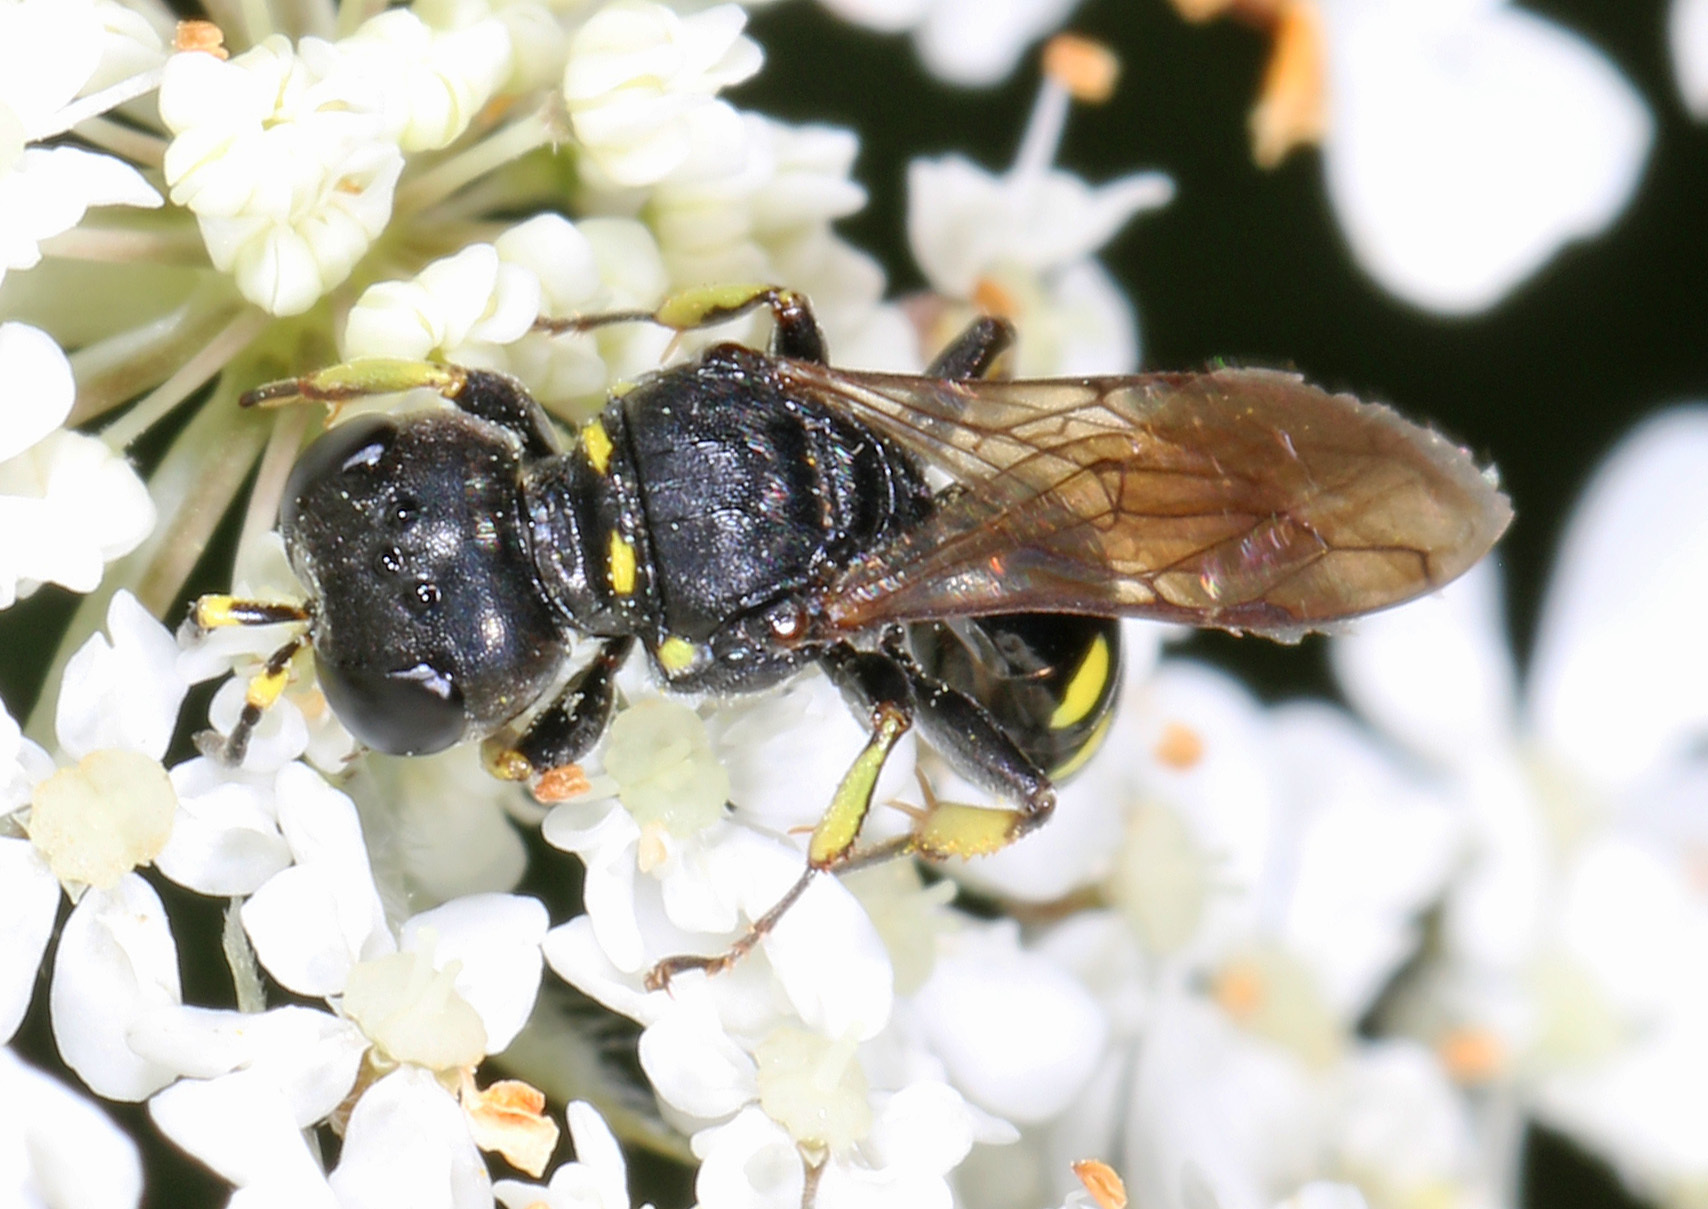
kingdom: Animalia
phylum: Arthropoda
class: Insecta
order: Hymenoptera
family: Crabronidae
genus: Ectemnius
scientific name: Ectemnius borealis
